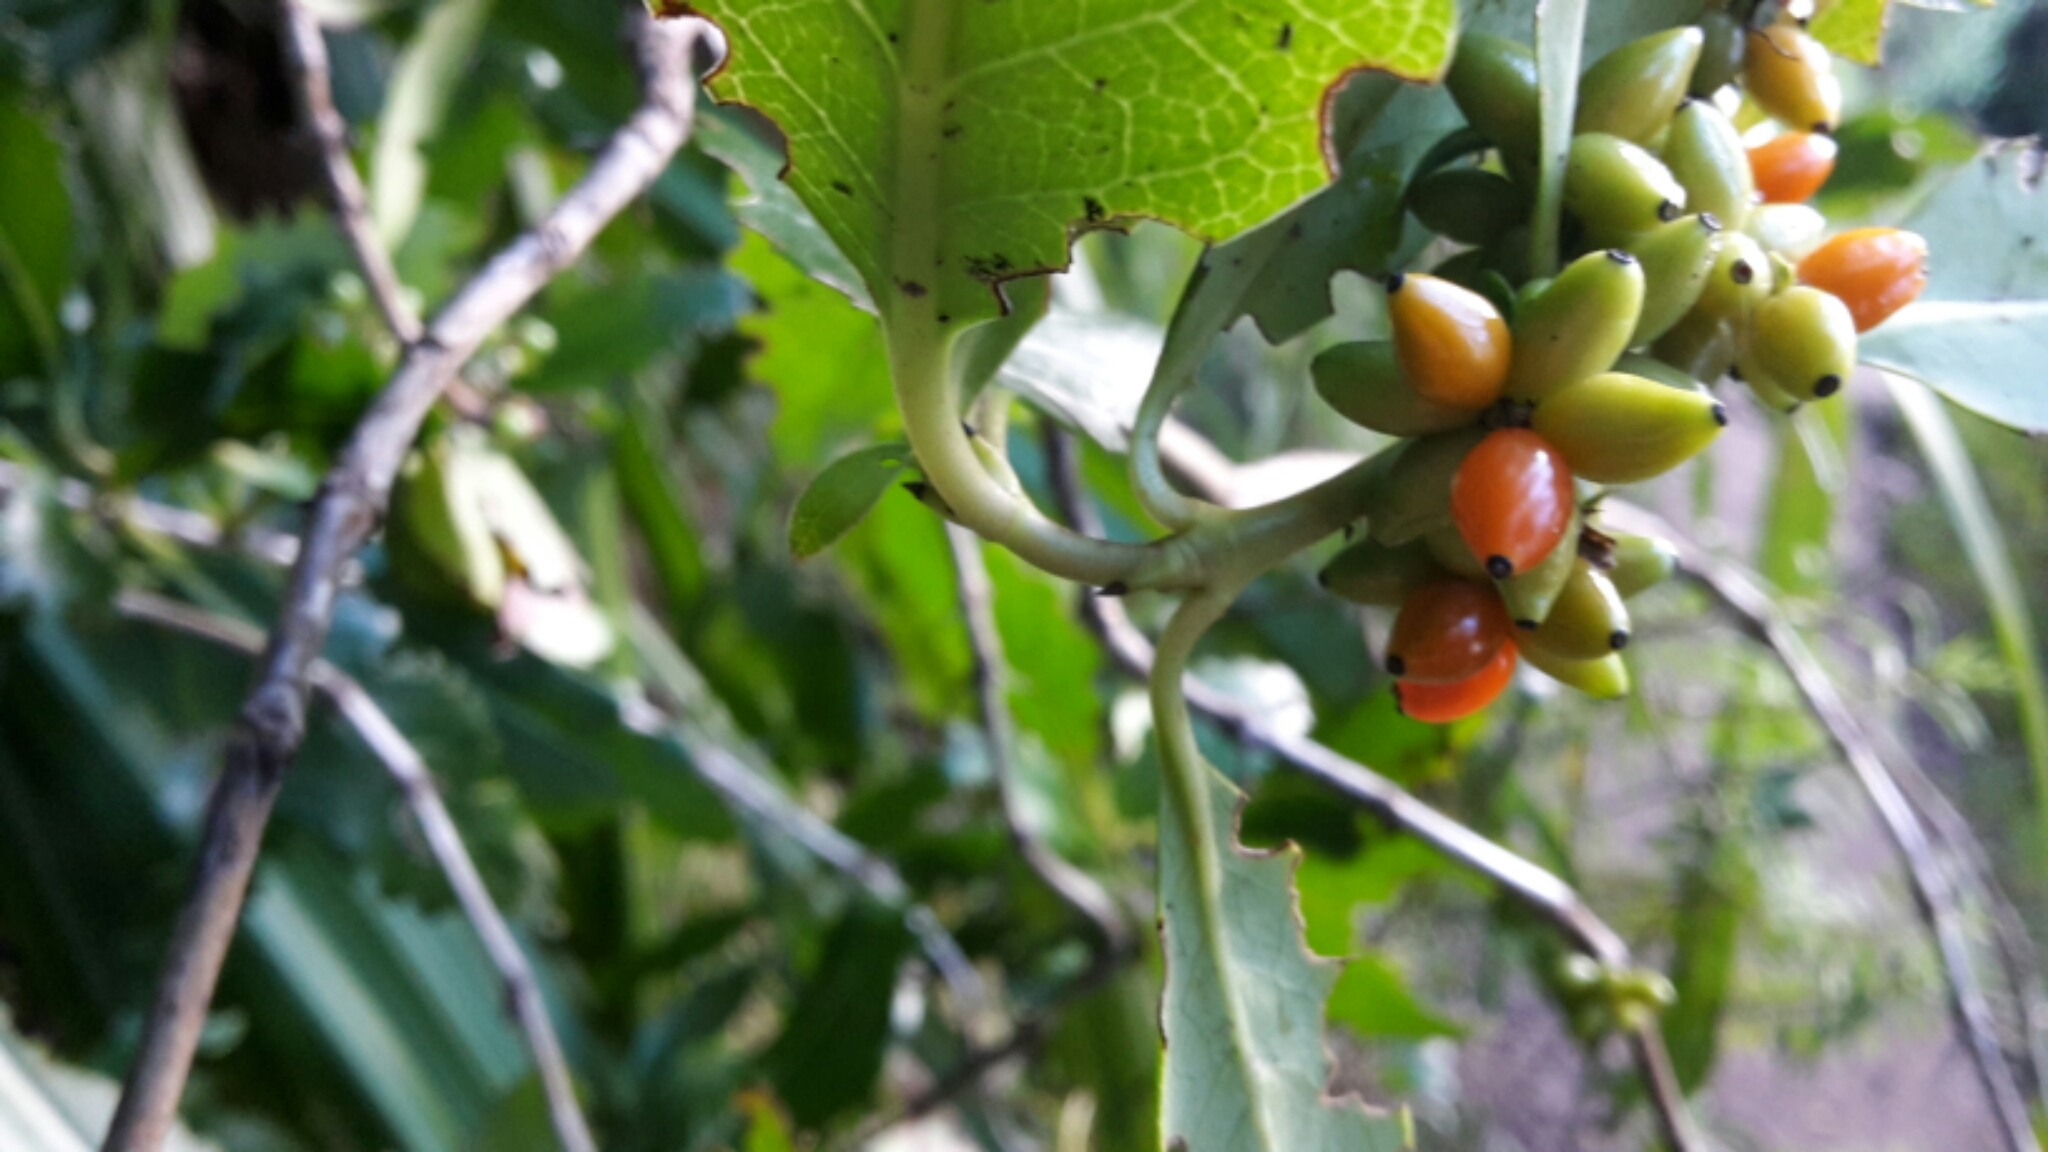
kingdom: Plantae
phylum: Tracheophyta
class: Magnoliopsida
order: Gentianales
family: Rubiaceae
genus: Coprosma
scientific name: Coprosma robusta
